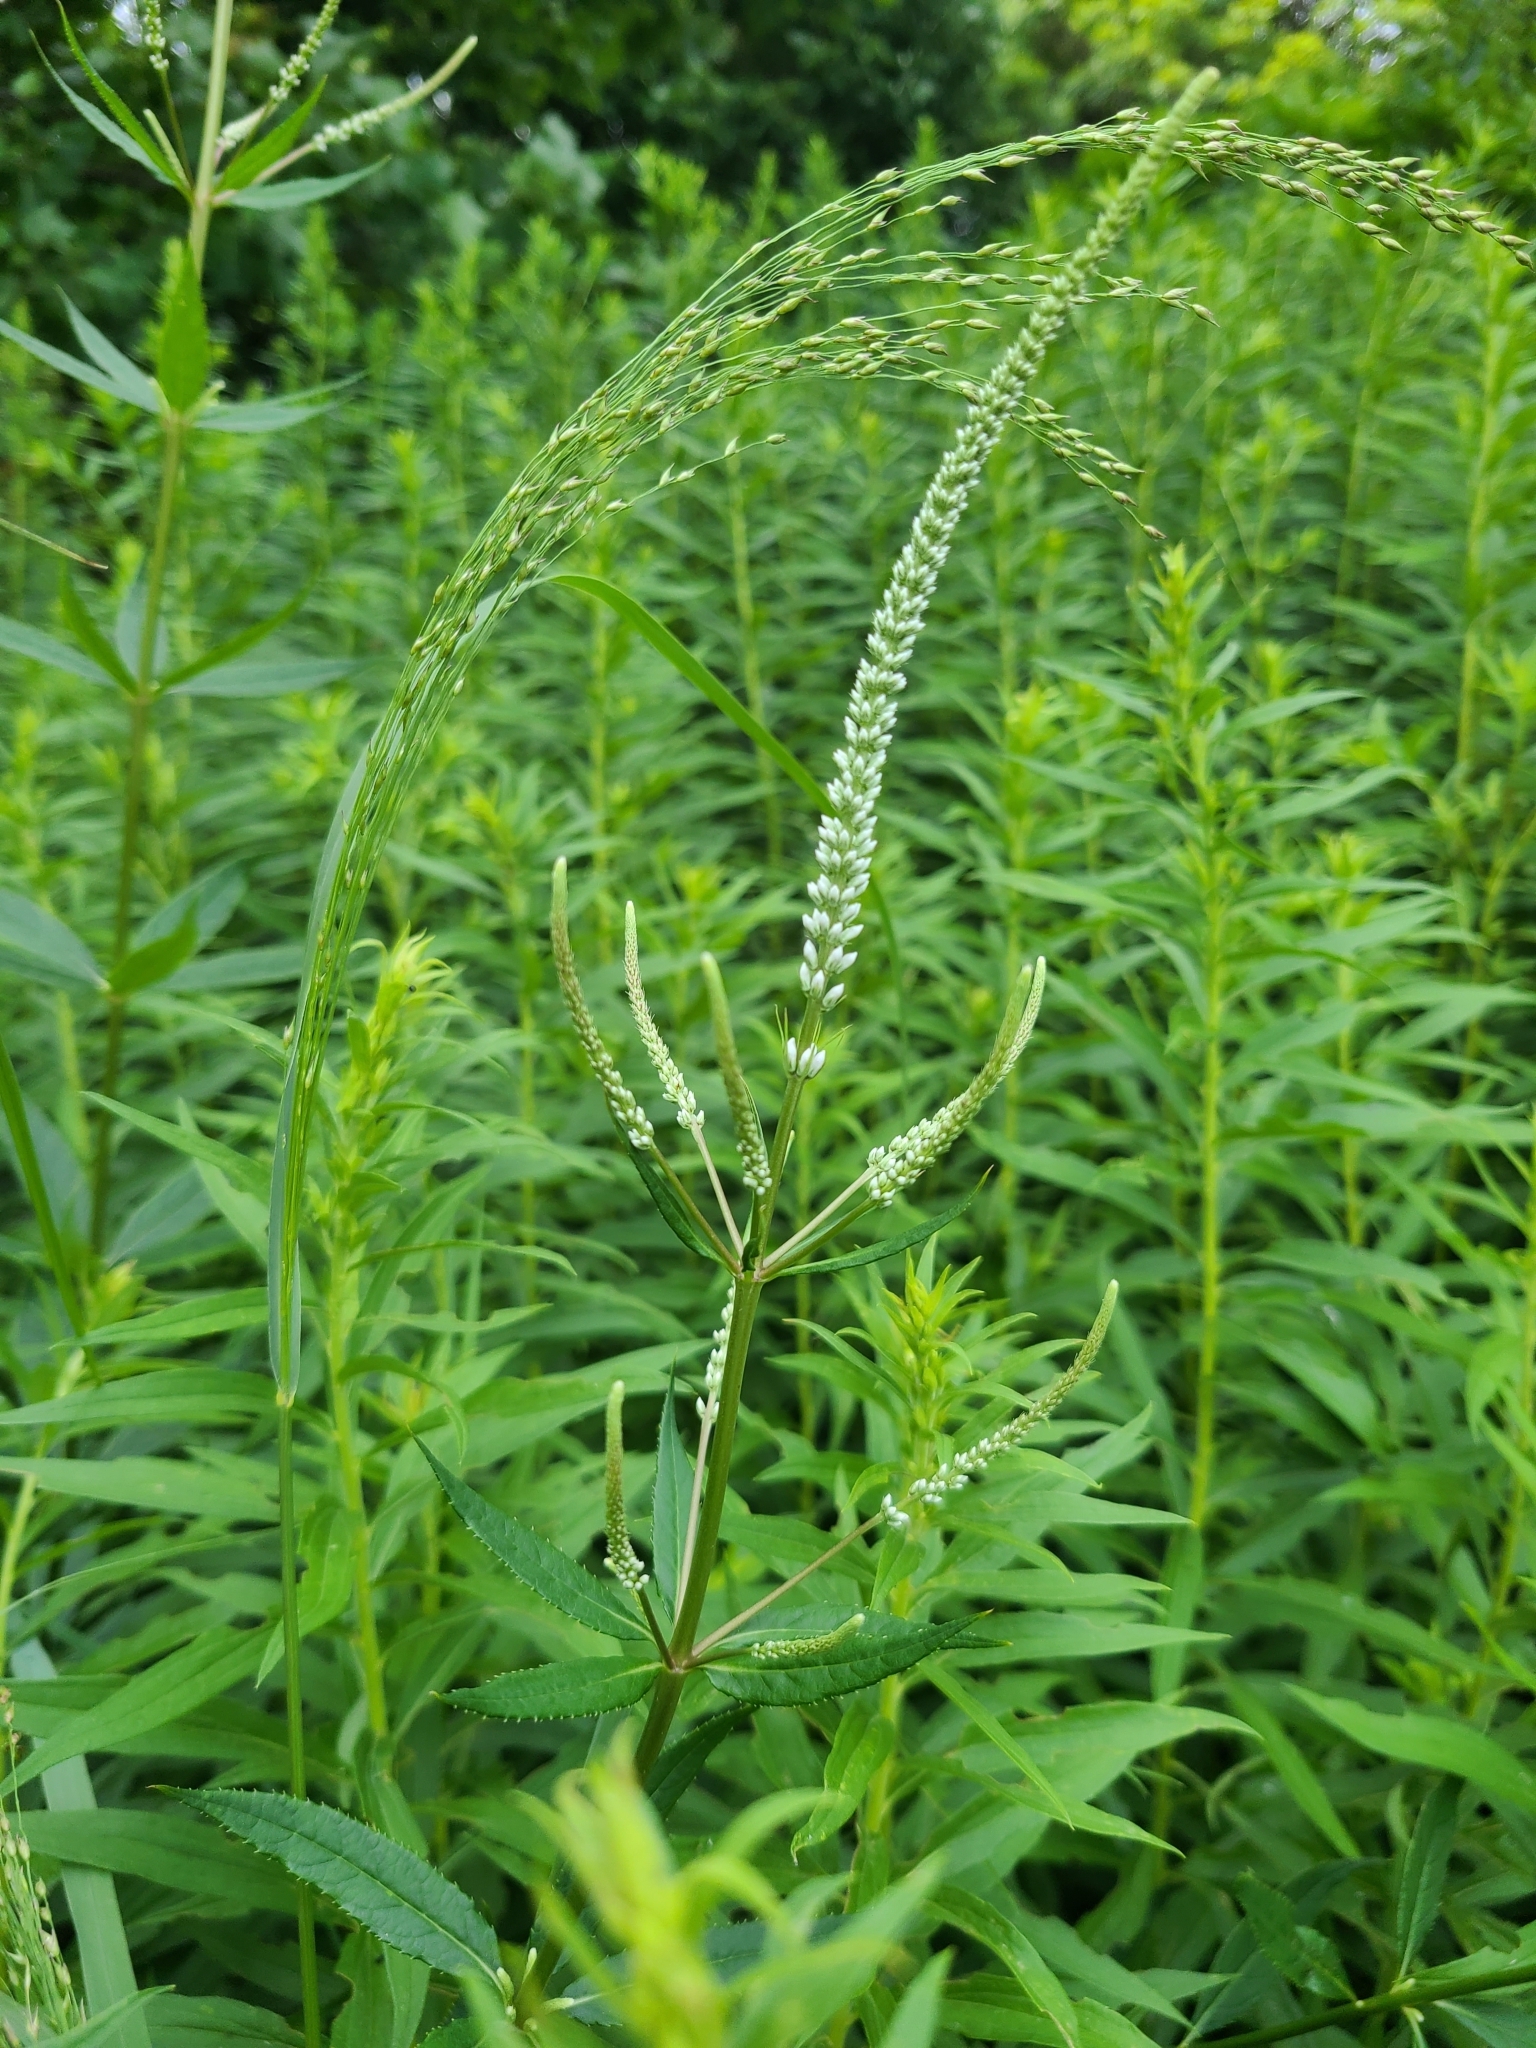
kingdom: Plantae
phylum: Tracheophyta
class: Magnoliopsida
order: Lamiales
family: Plantaginaceae
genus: Veronicastrum
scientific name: Veronicastrum virginicum
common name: Blackroot
